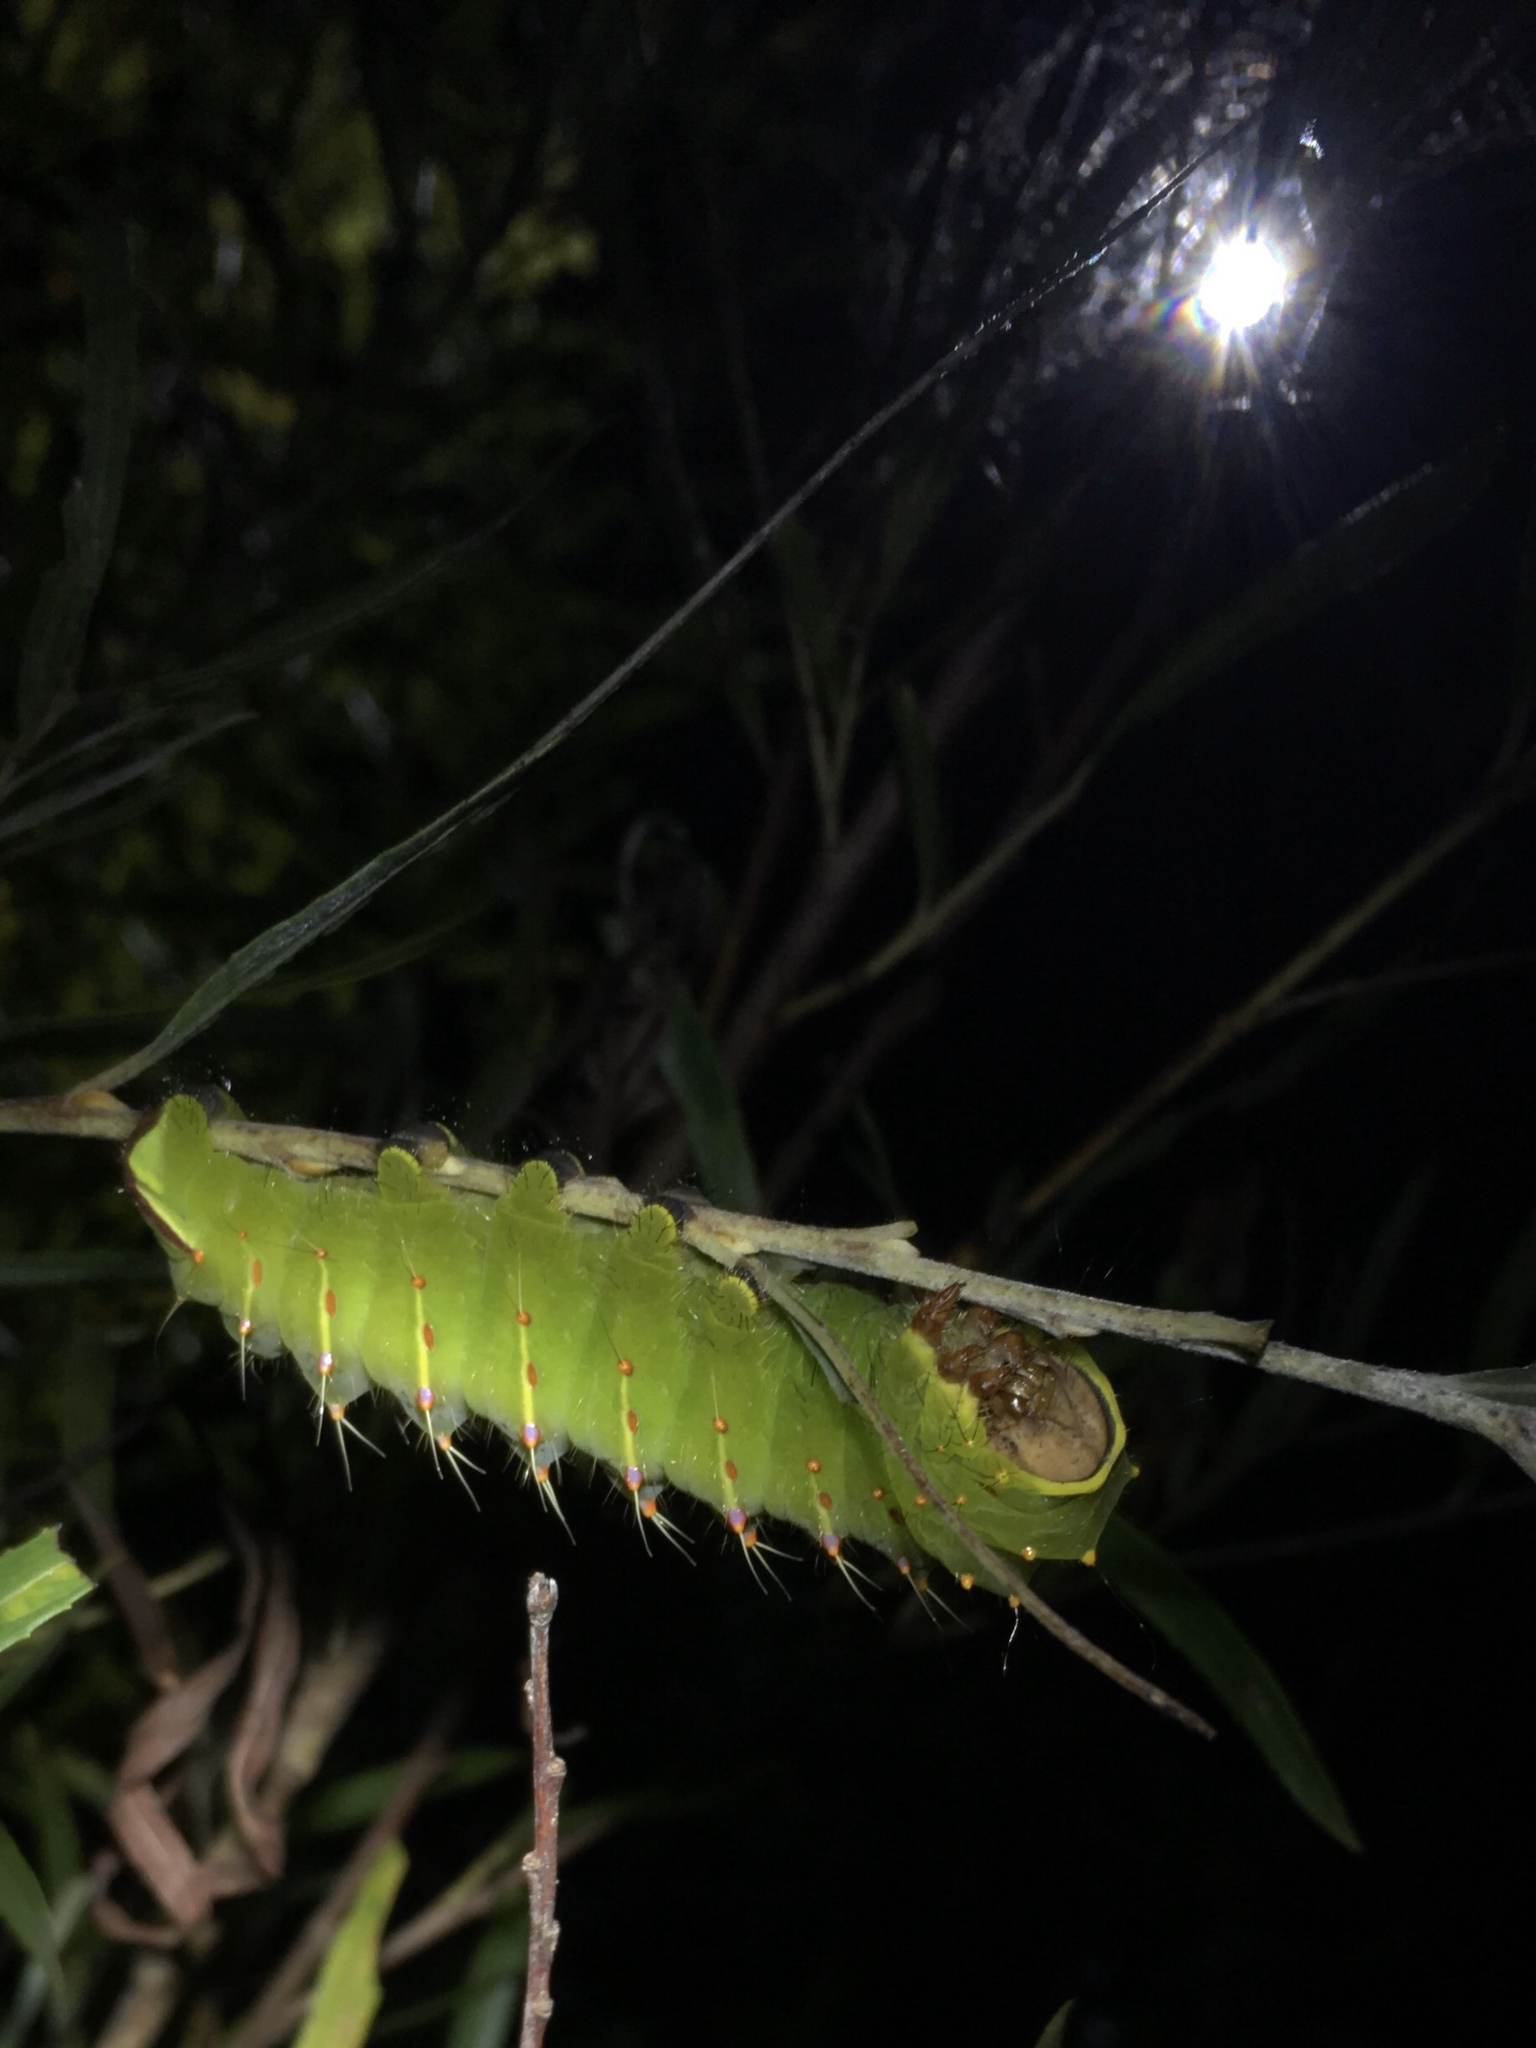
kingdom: Animalia
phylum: Arthropoda
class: Insecta
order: Lepidoptera
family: Saturniidae
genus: Antheraea
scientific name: Antheraea polyphemus
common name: Polyphemus moth
